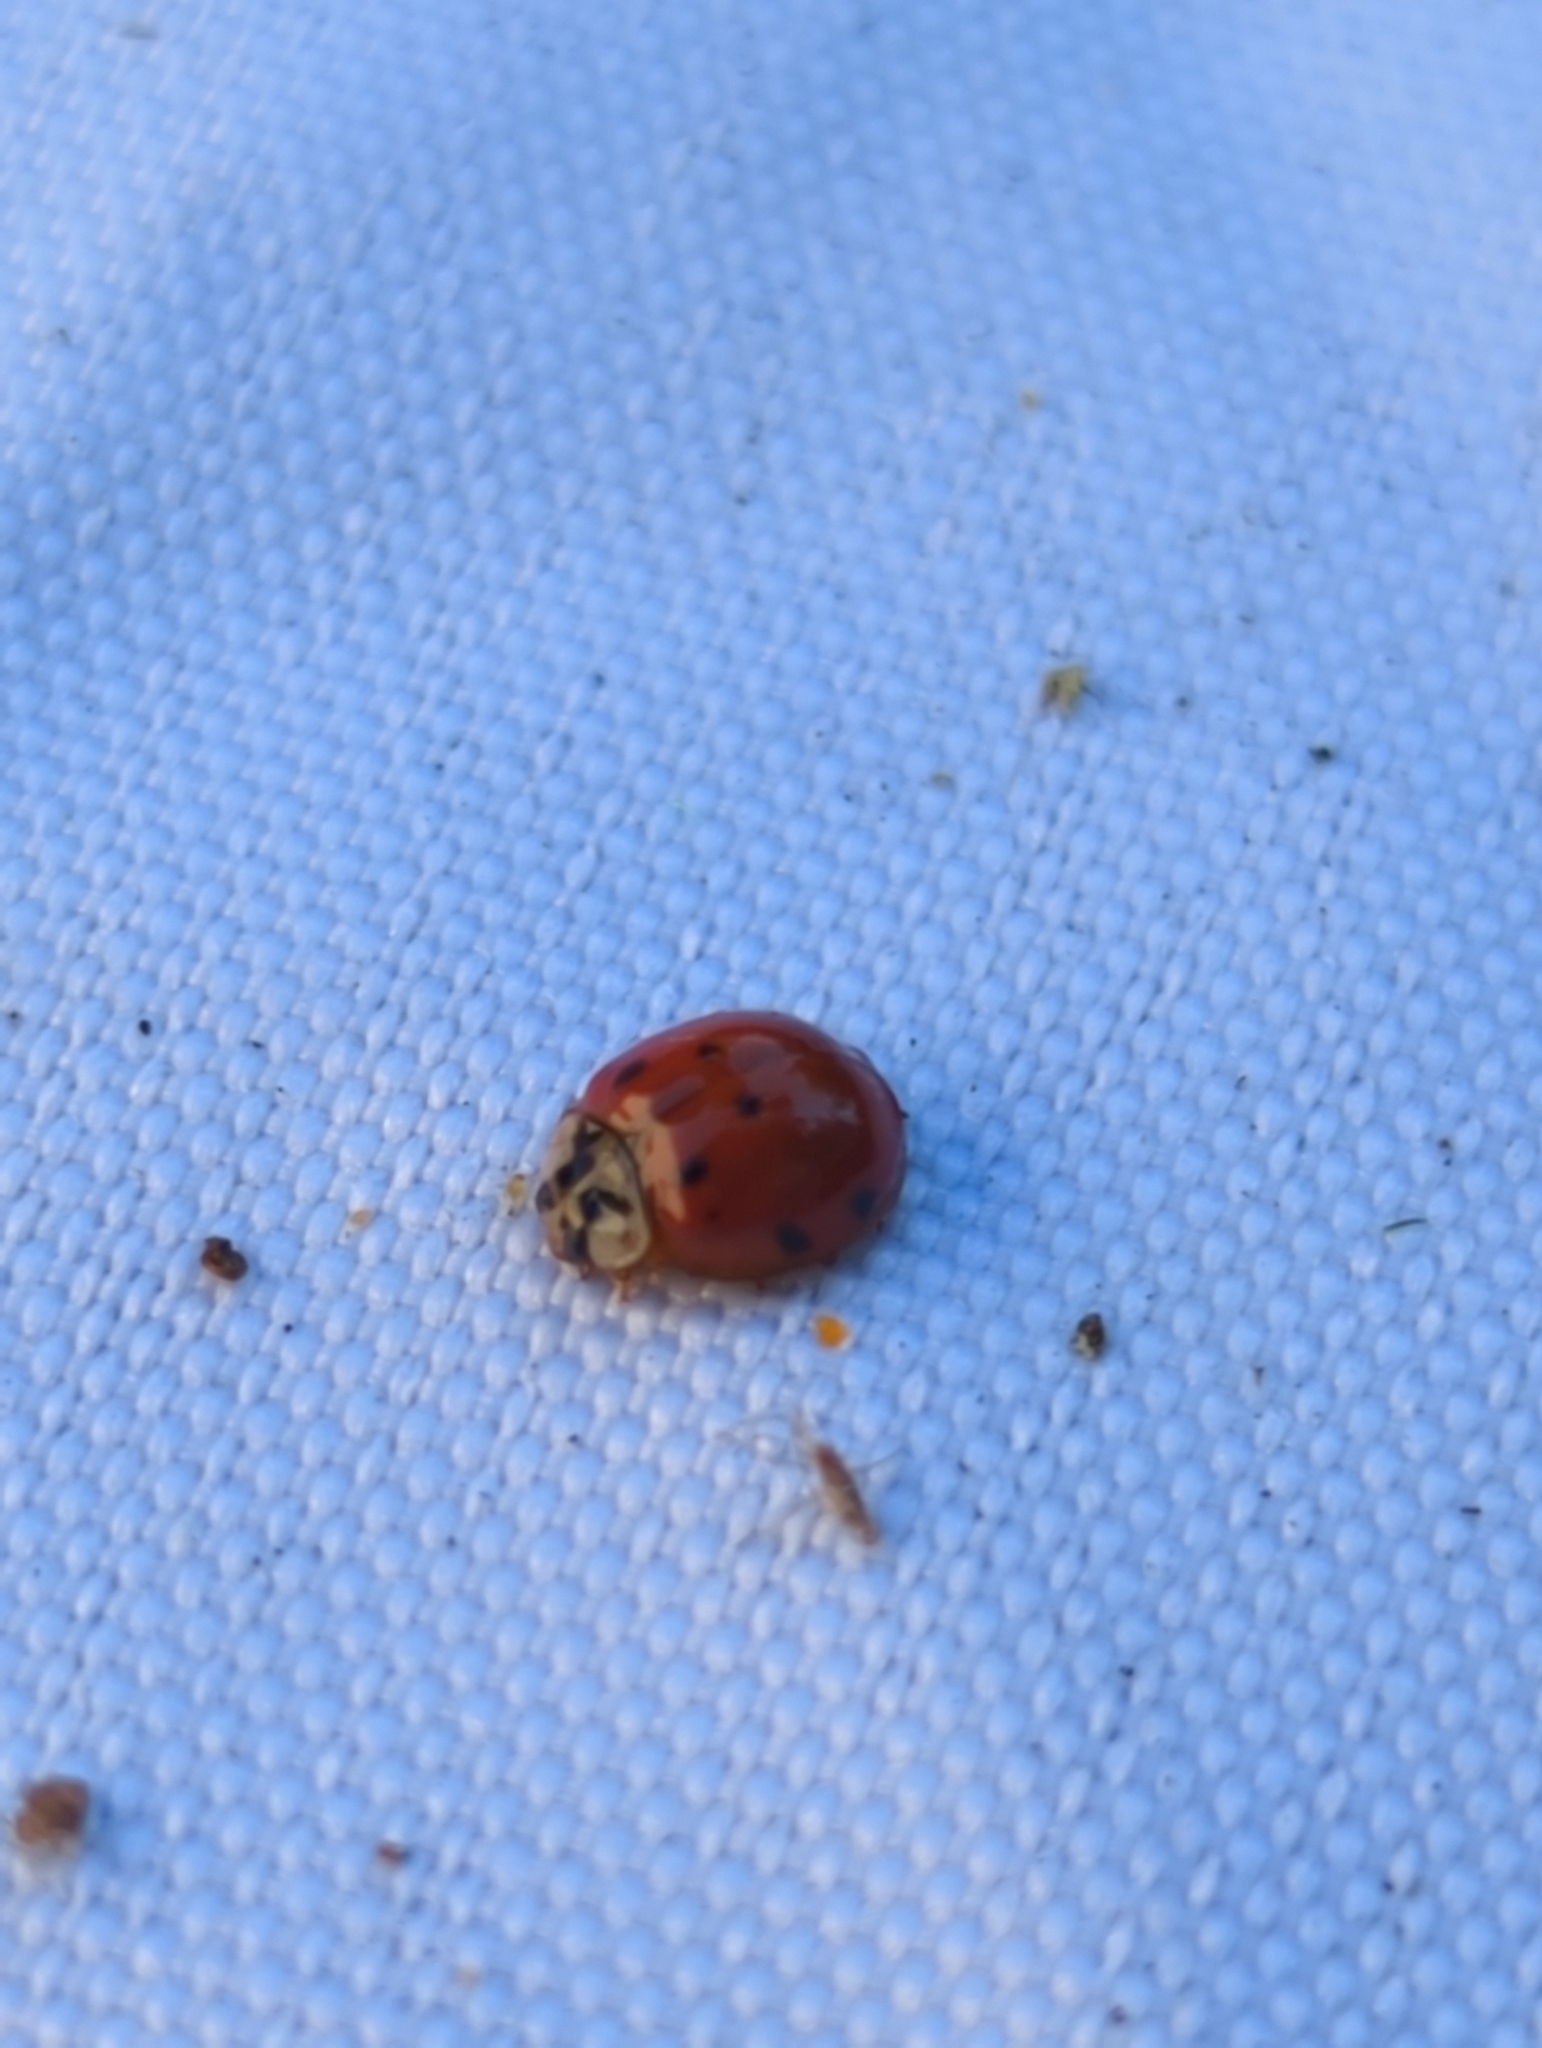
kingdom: Animalia
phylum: Arthropoda
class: Insecta
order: Coleoptera
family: Coccinellidae
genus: Harmonia
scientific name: Harmonia axyridis
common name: Harlequin ladybird
